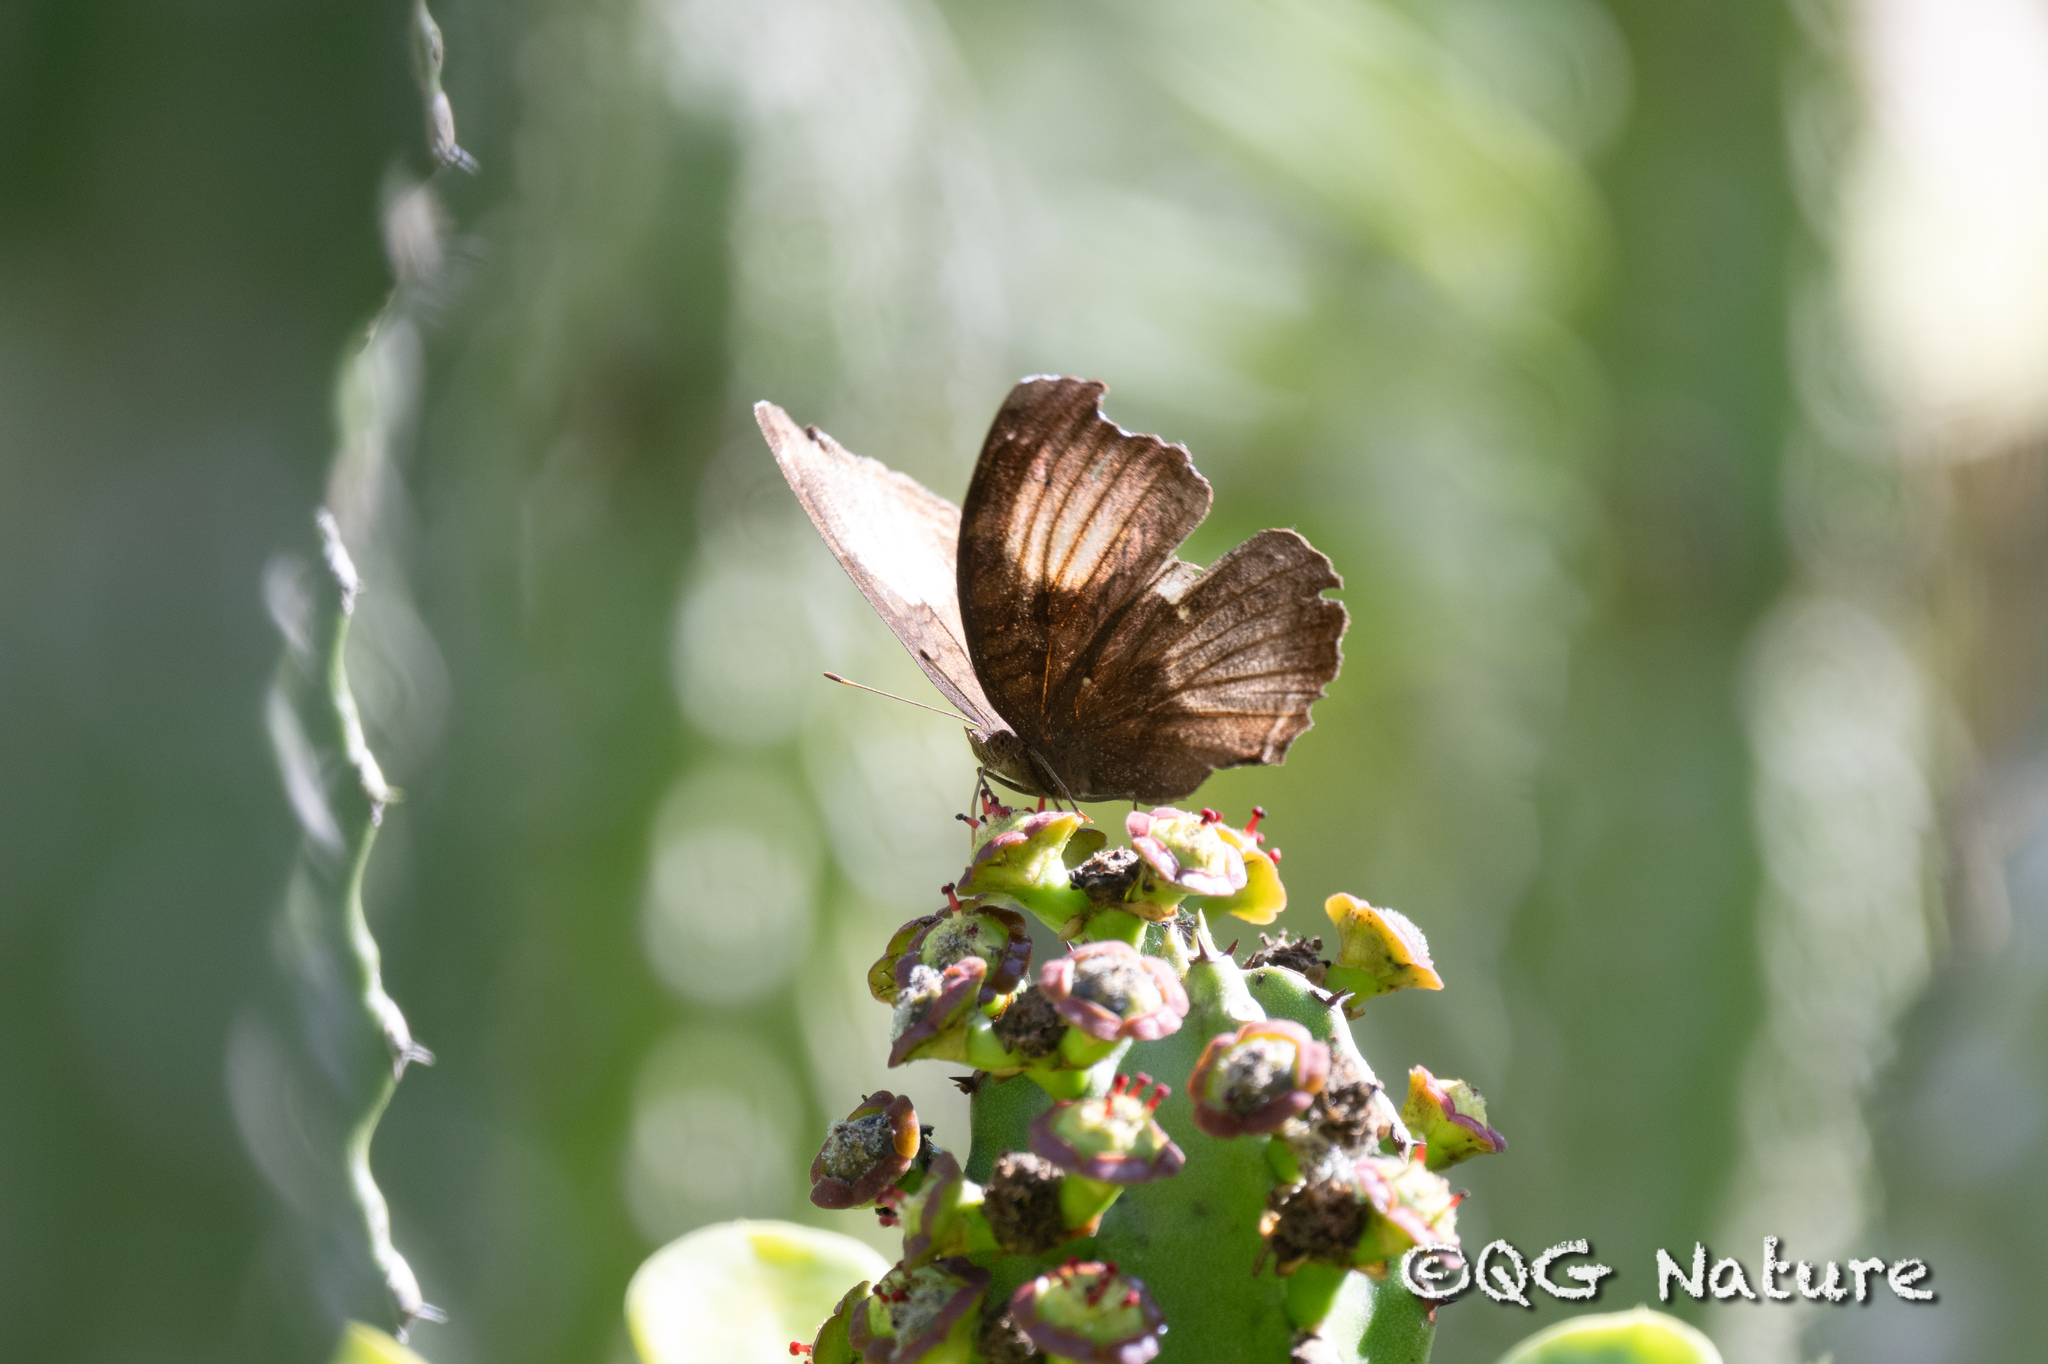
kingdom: Animalia
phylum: Arthropoda
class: Insecta
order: Lepidoptera
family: Nymphalidae
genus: Junonia
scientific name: Junonia iphita
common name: Chocolate pansy
